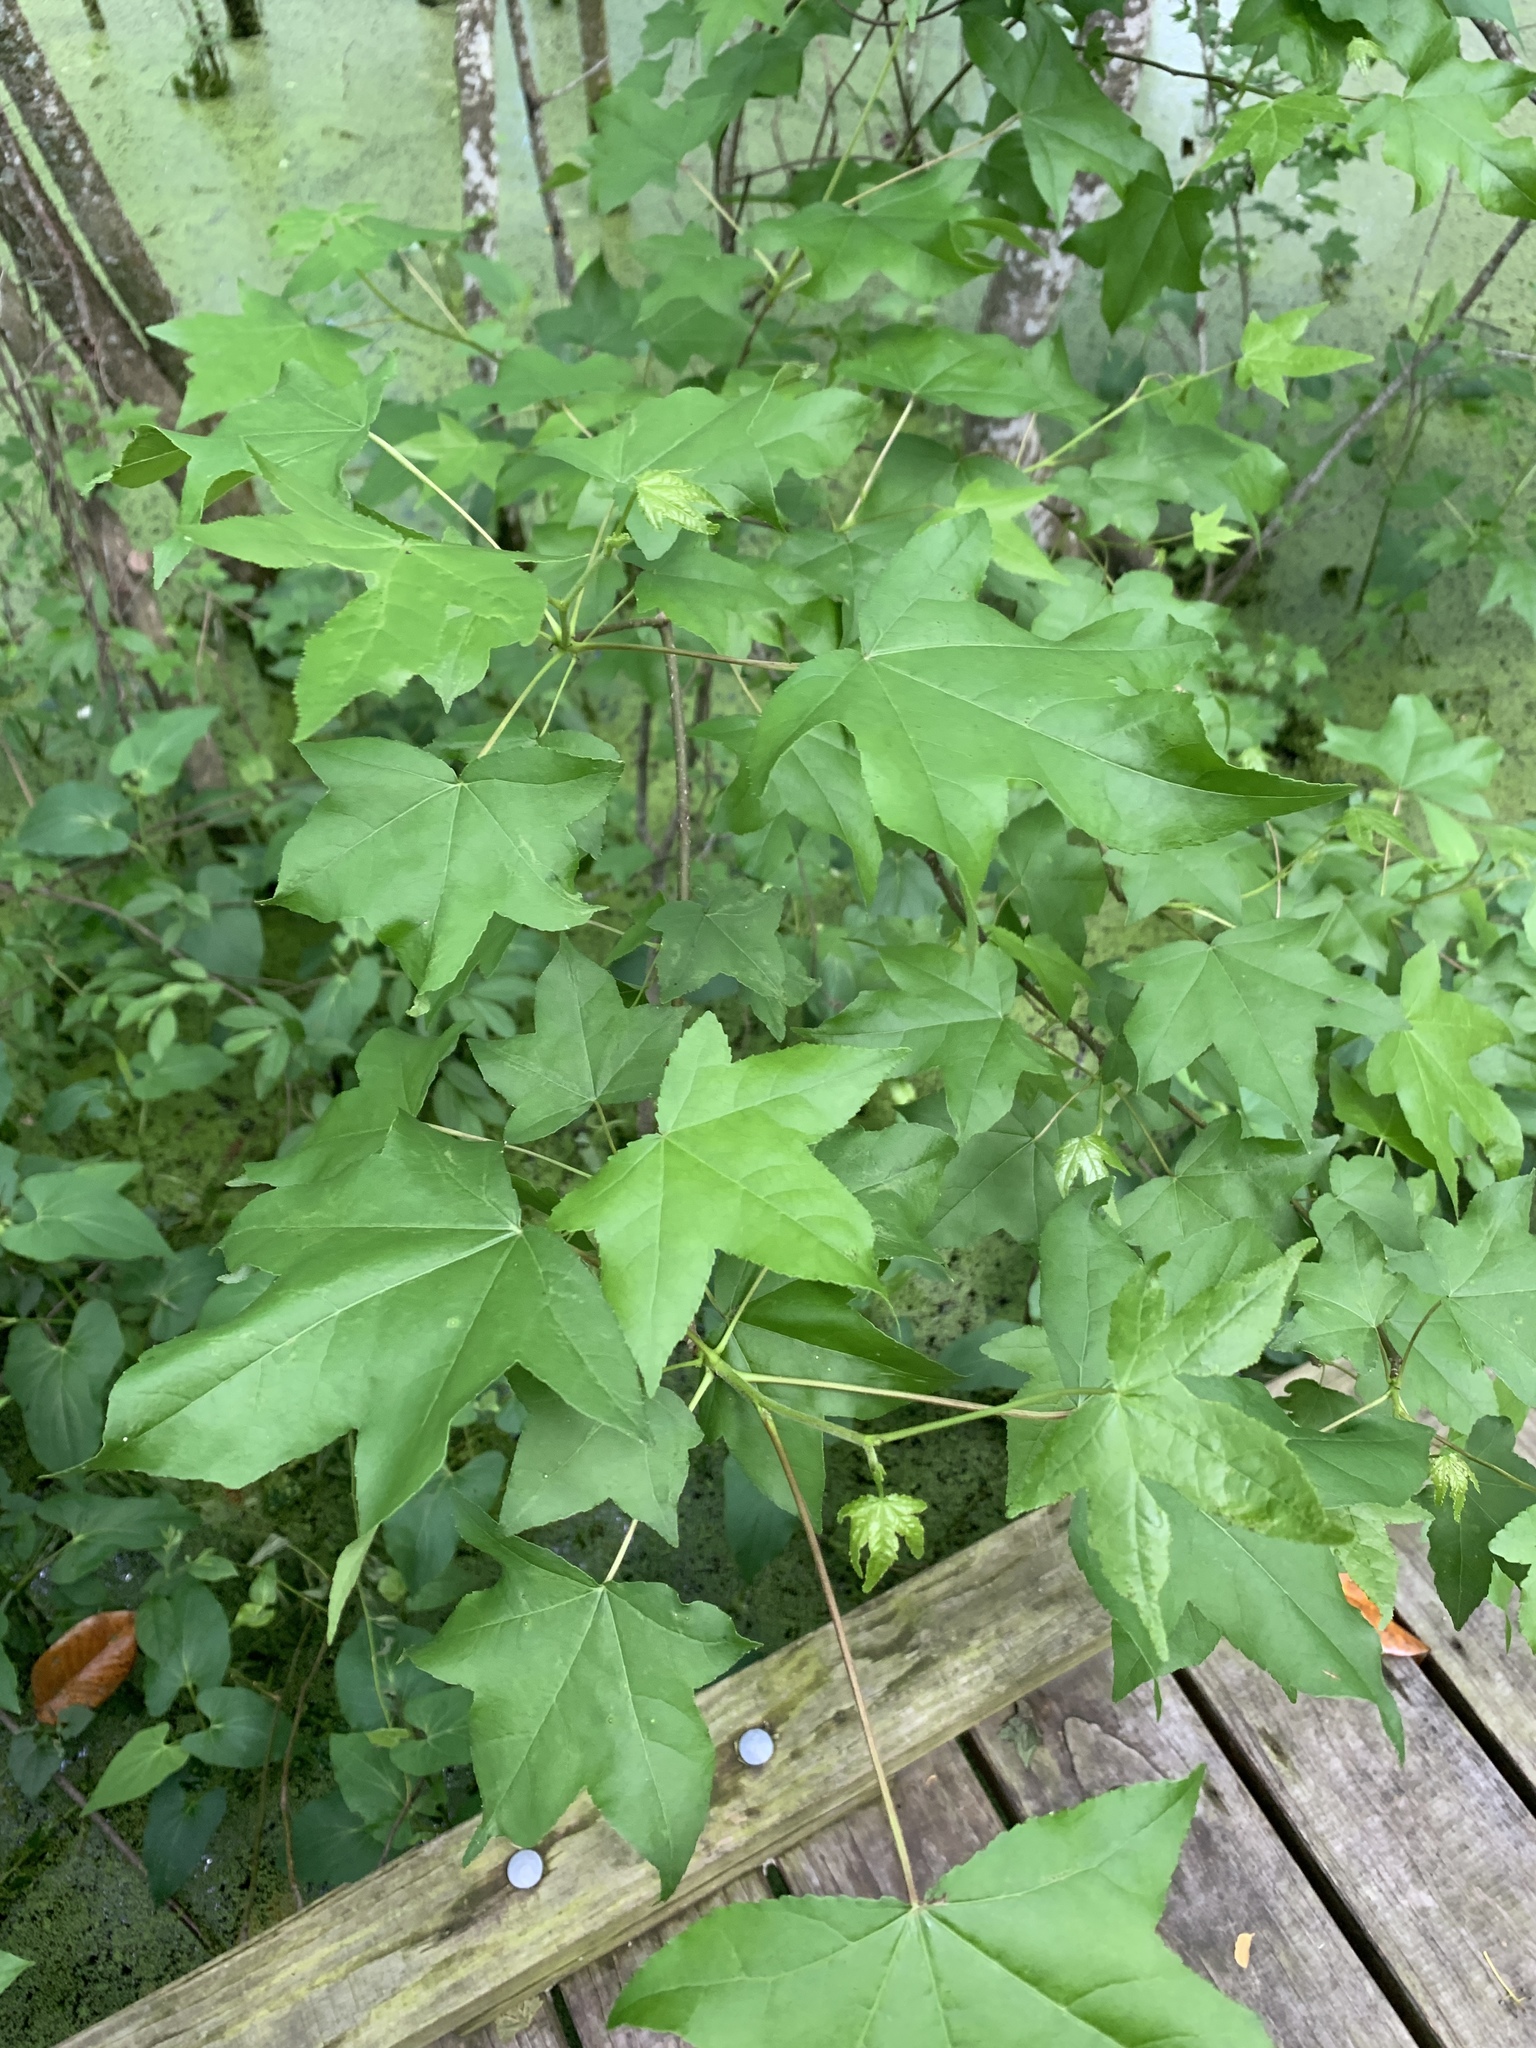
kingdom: Plantae
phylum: Tracheophyta
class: Magnoliopsida
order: Saxifragales
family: Altingiaceae
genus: Liquidambar
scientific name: Liquidambar styraciflua
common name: Sweet gum
